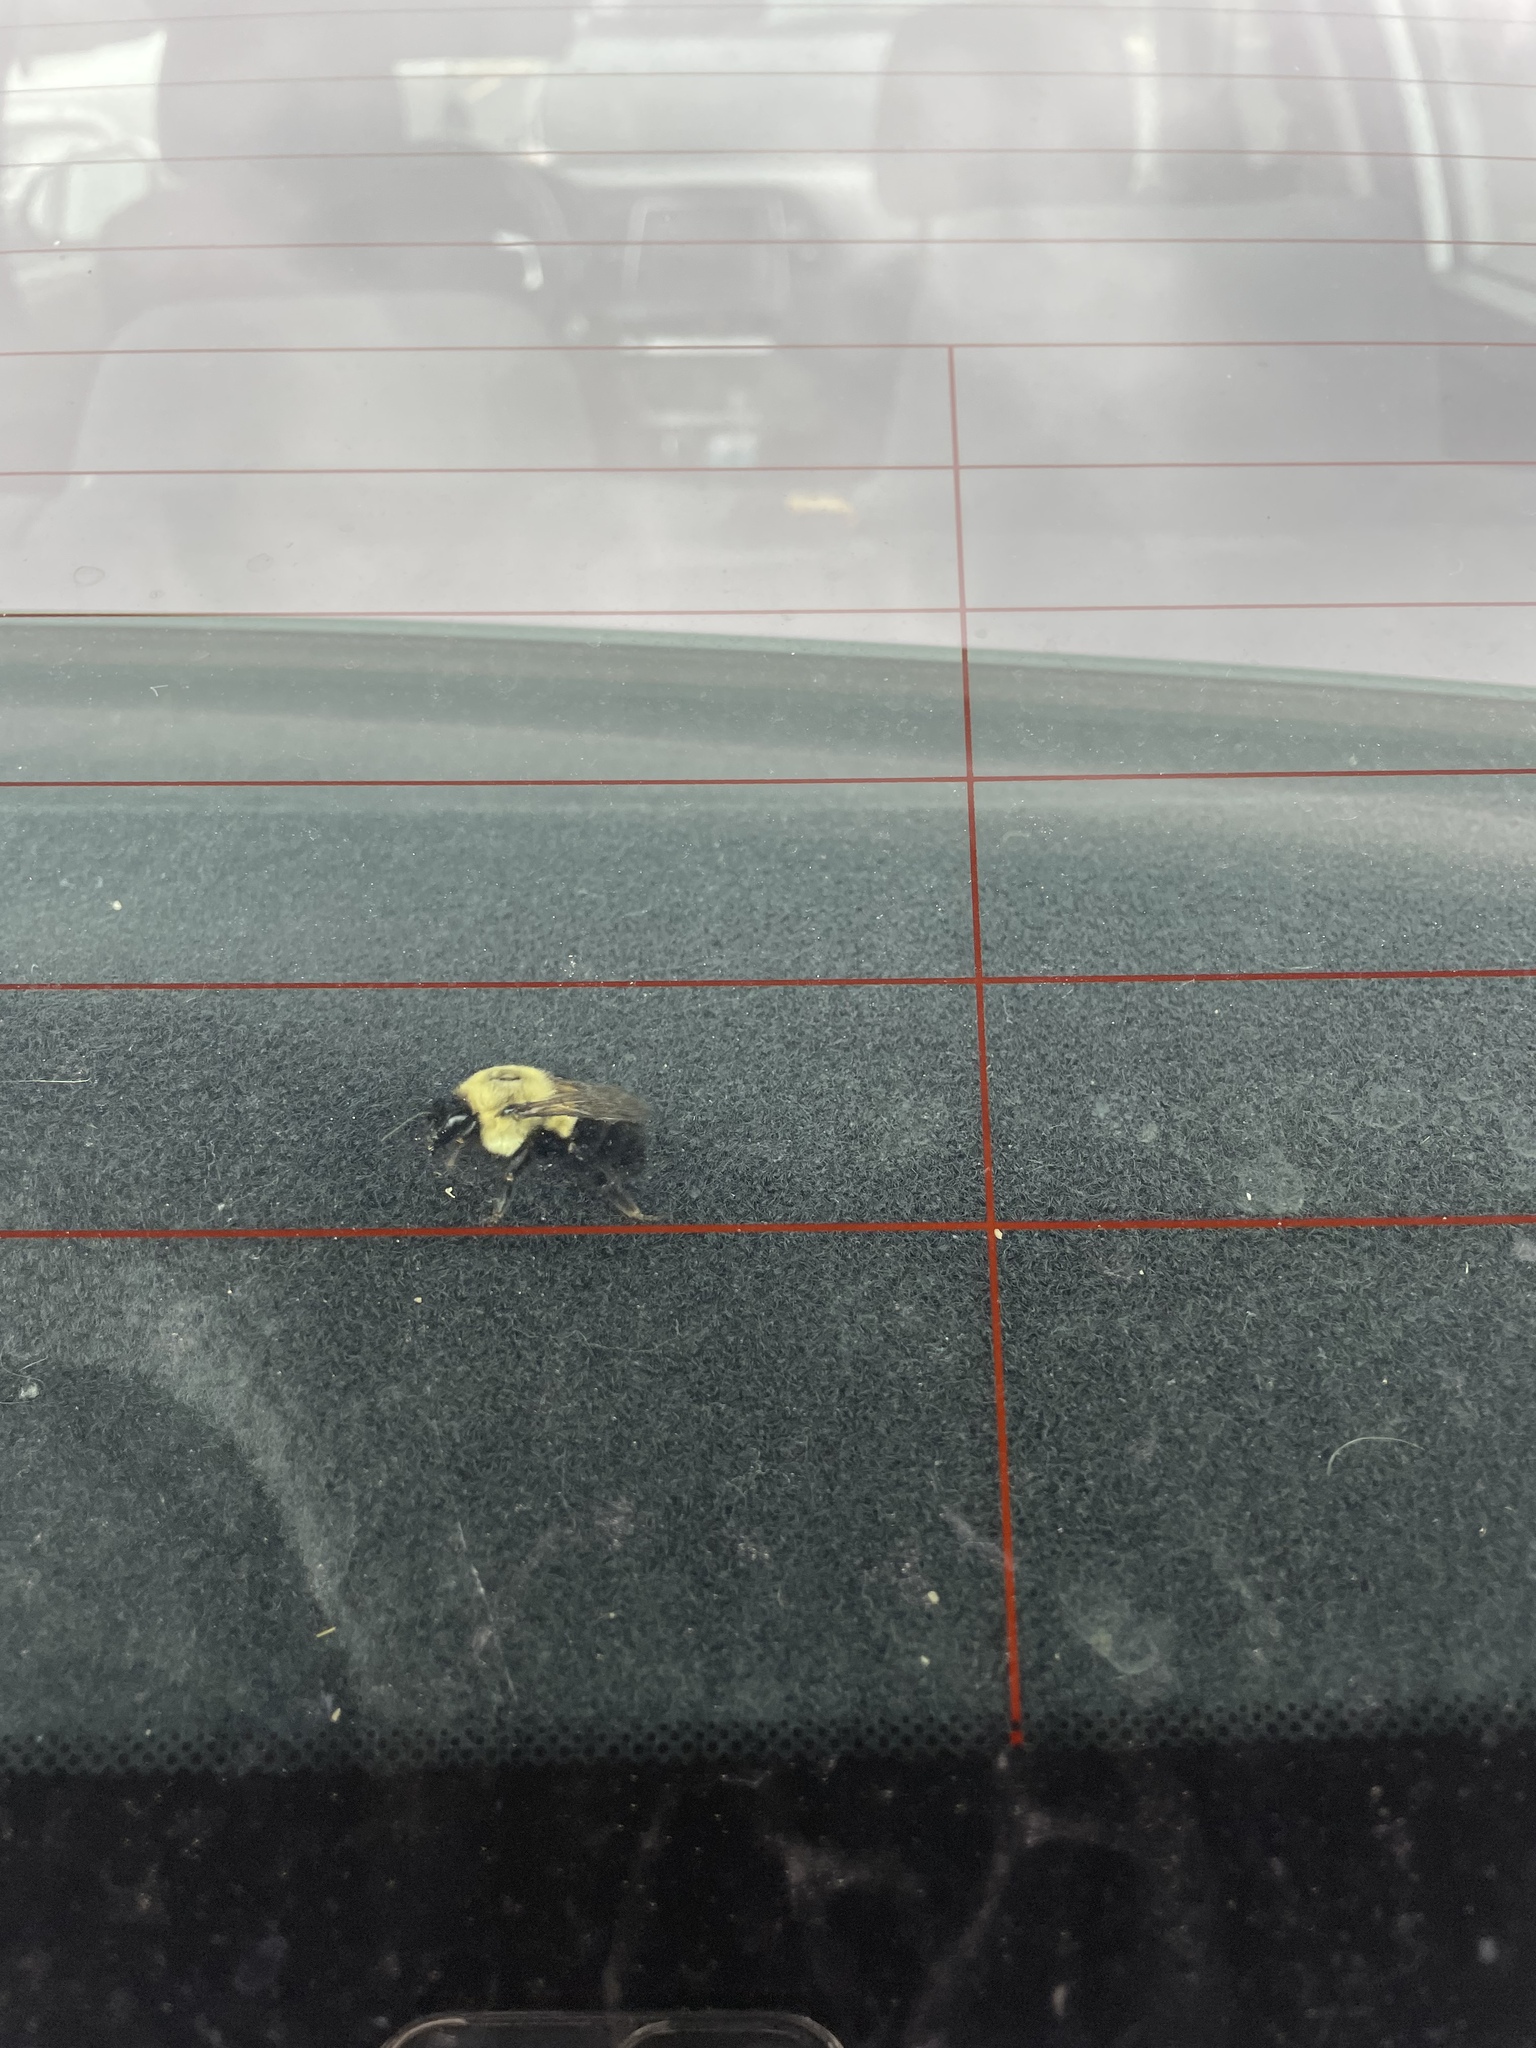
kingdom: Animalia
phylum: Arthropoda
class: Insecta
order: Hymenoptera
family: Apidae
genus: Bombus
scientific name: Bombus impatiens
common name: Common eastern bumble bee
